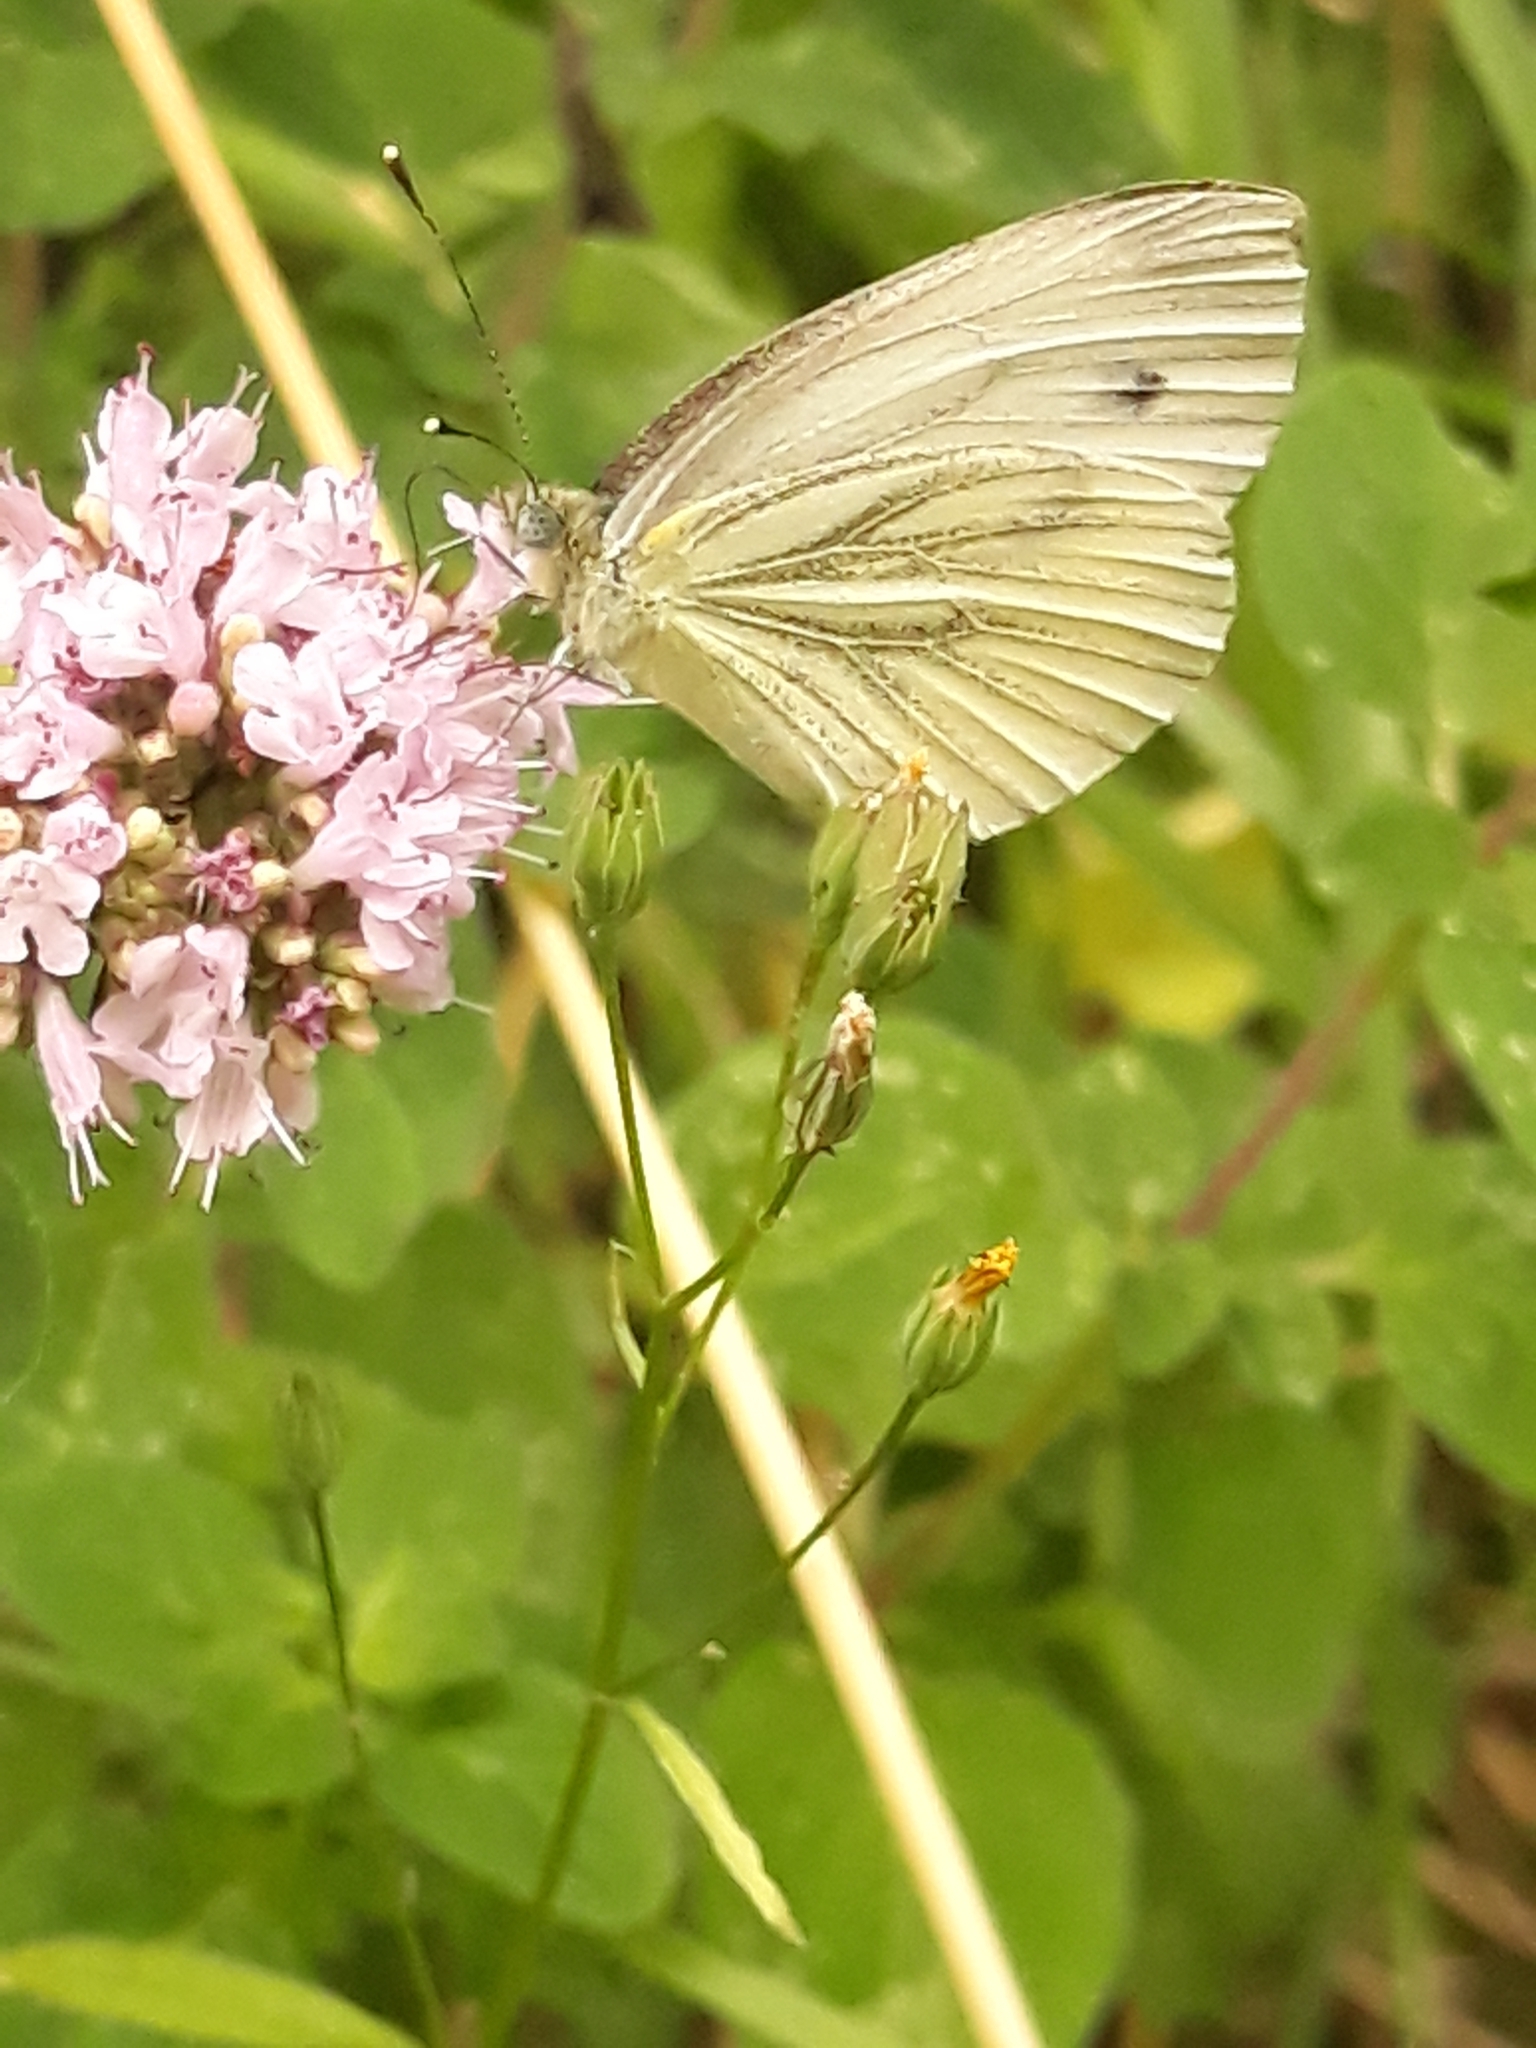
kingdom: Animalia
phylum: Arthropoda
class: Insecta
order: Lepidoptera
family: Pieridae
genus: Pieris
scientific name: Pieris napi
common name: Green-veined white
